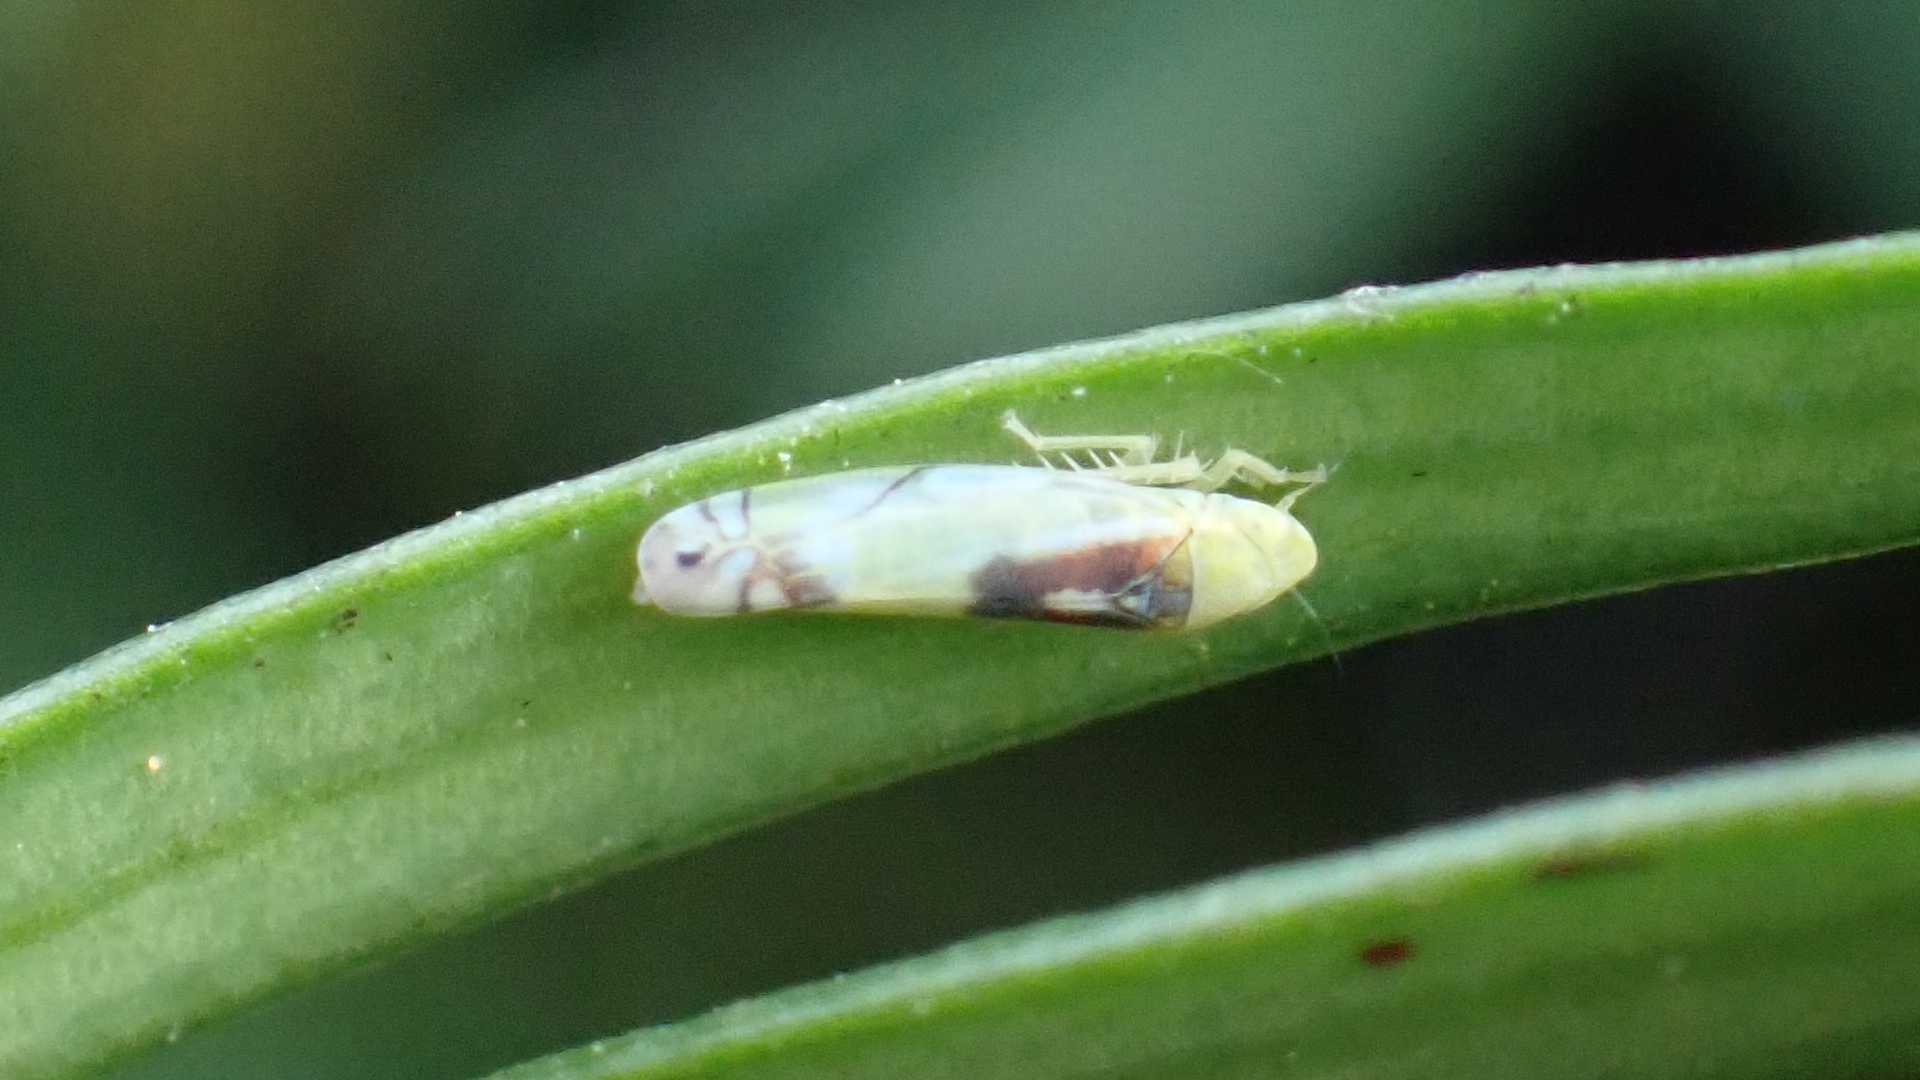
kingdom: Animalia
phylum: Arthropoda
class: Insecta
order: Hemiptera
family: Cicadellidae
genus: Zyginella
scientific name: Zyginella pulchra
